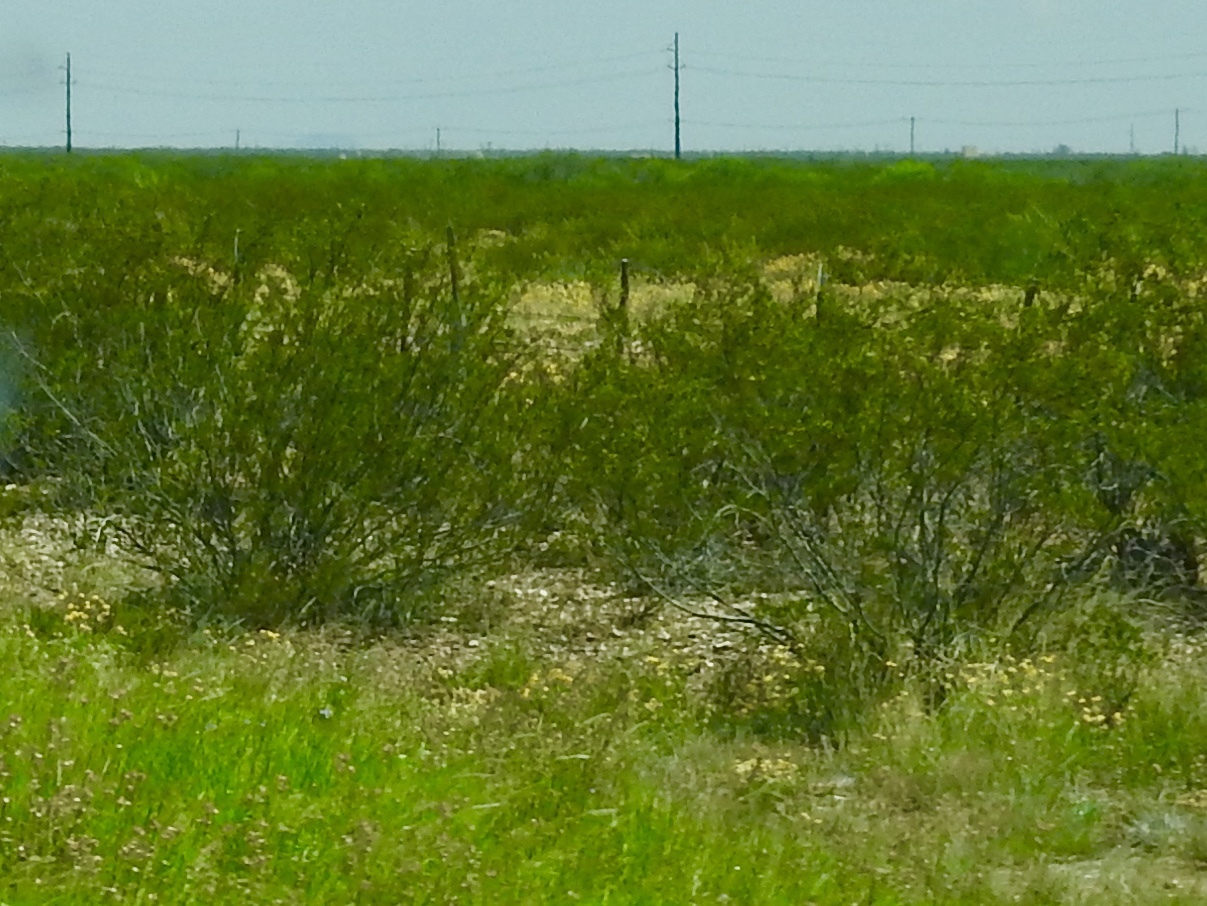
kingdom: Plantae
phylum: Tracheophyta
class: Magnoliopsida
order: Zygophyllales
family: Zygophyllaceae
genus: Larrea
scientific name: Larrea tridentata
